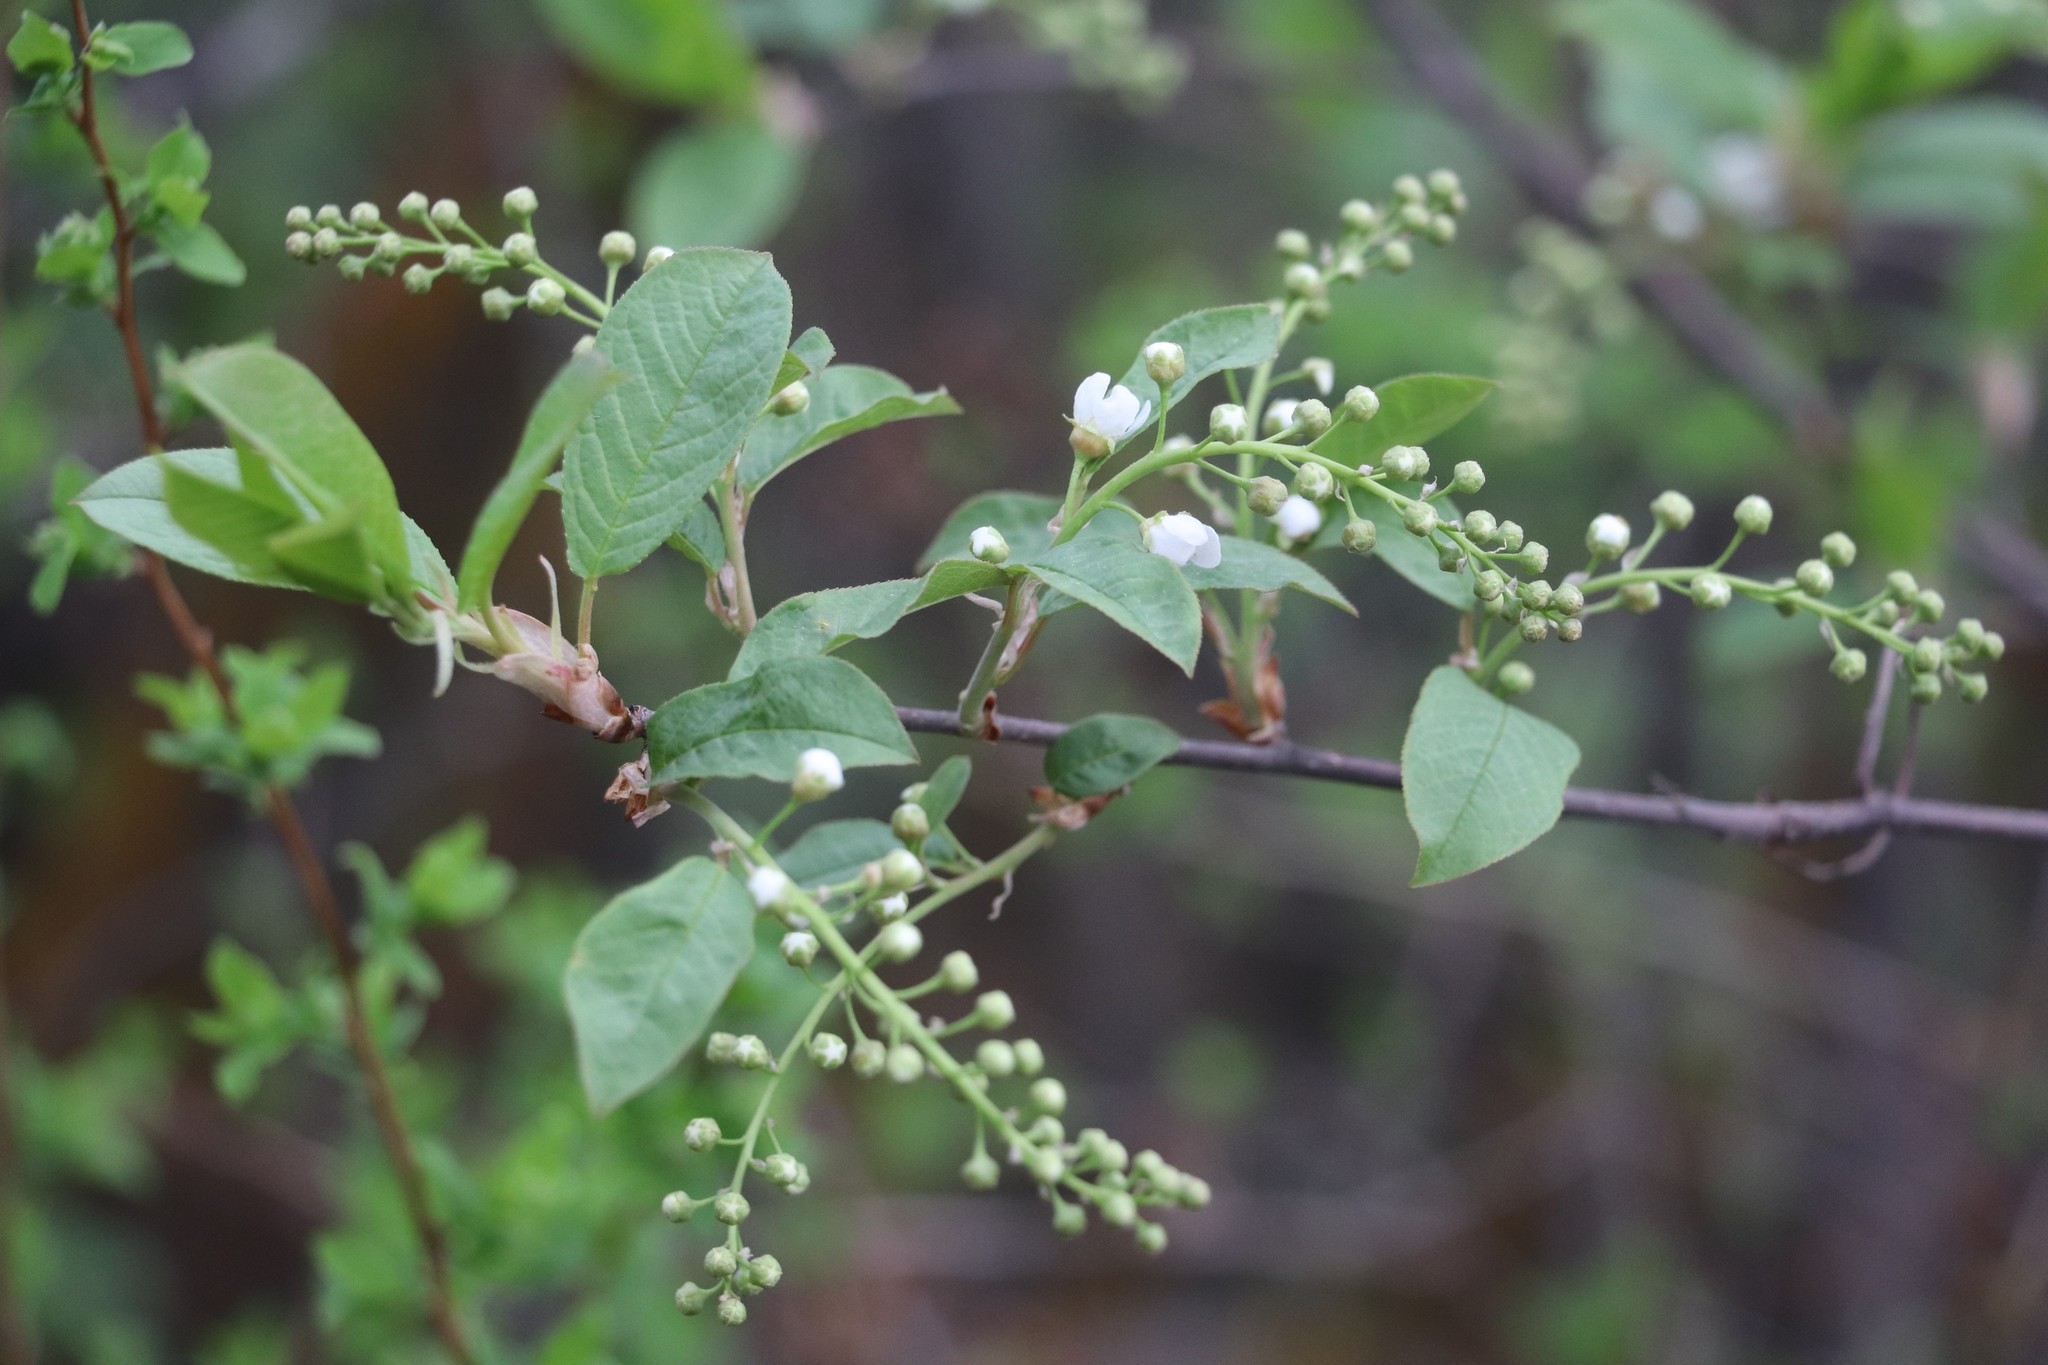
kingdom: Plantae
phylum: Tracheophyta
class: Magnoliopsida
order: Rosales
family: Rosaceae
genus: Prunus
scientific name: Prunus padus
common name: Bird cherry
